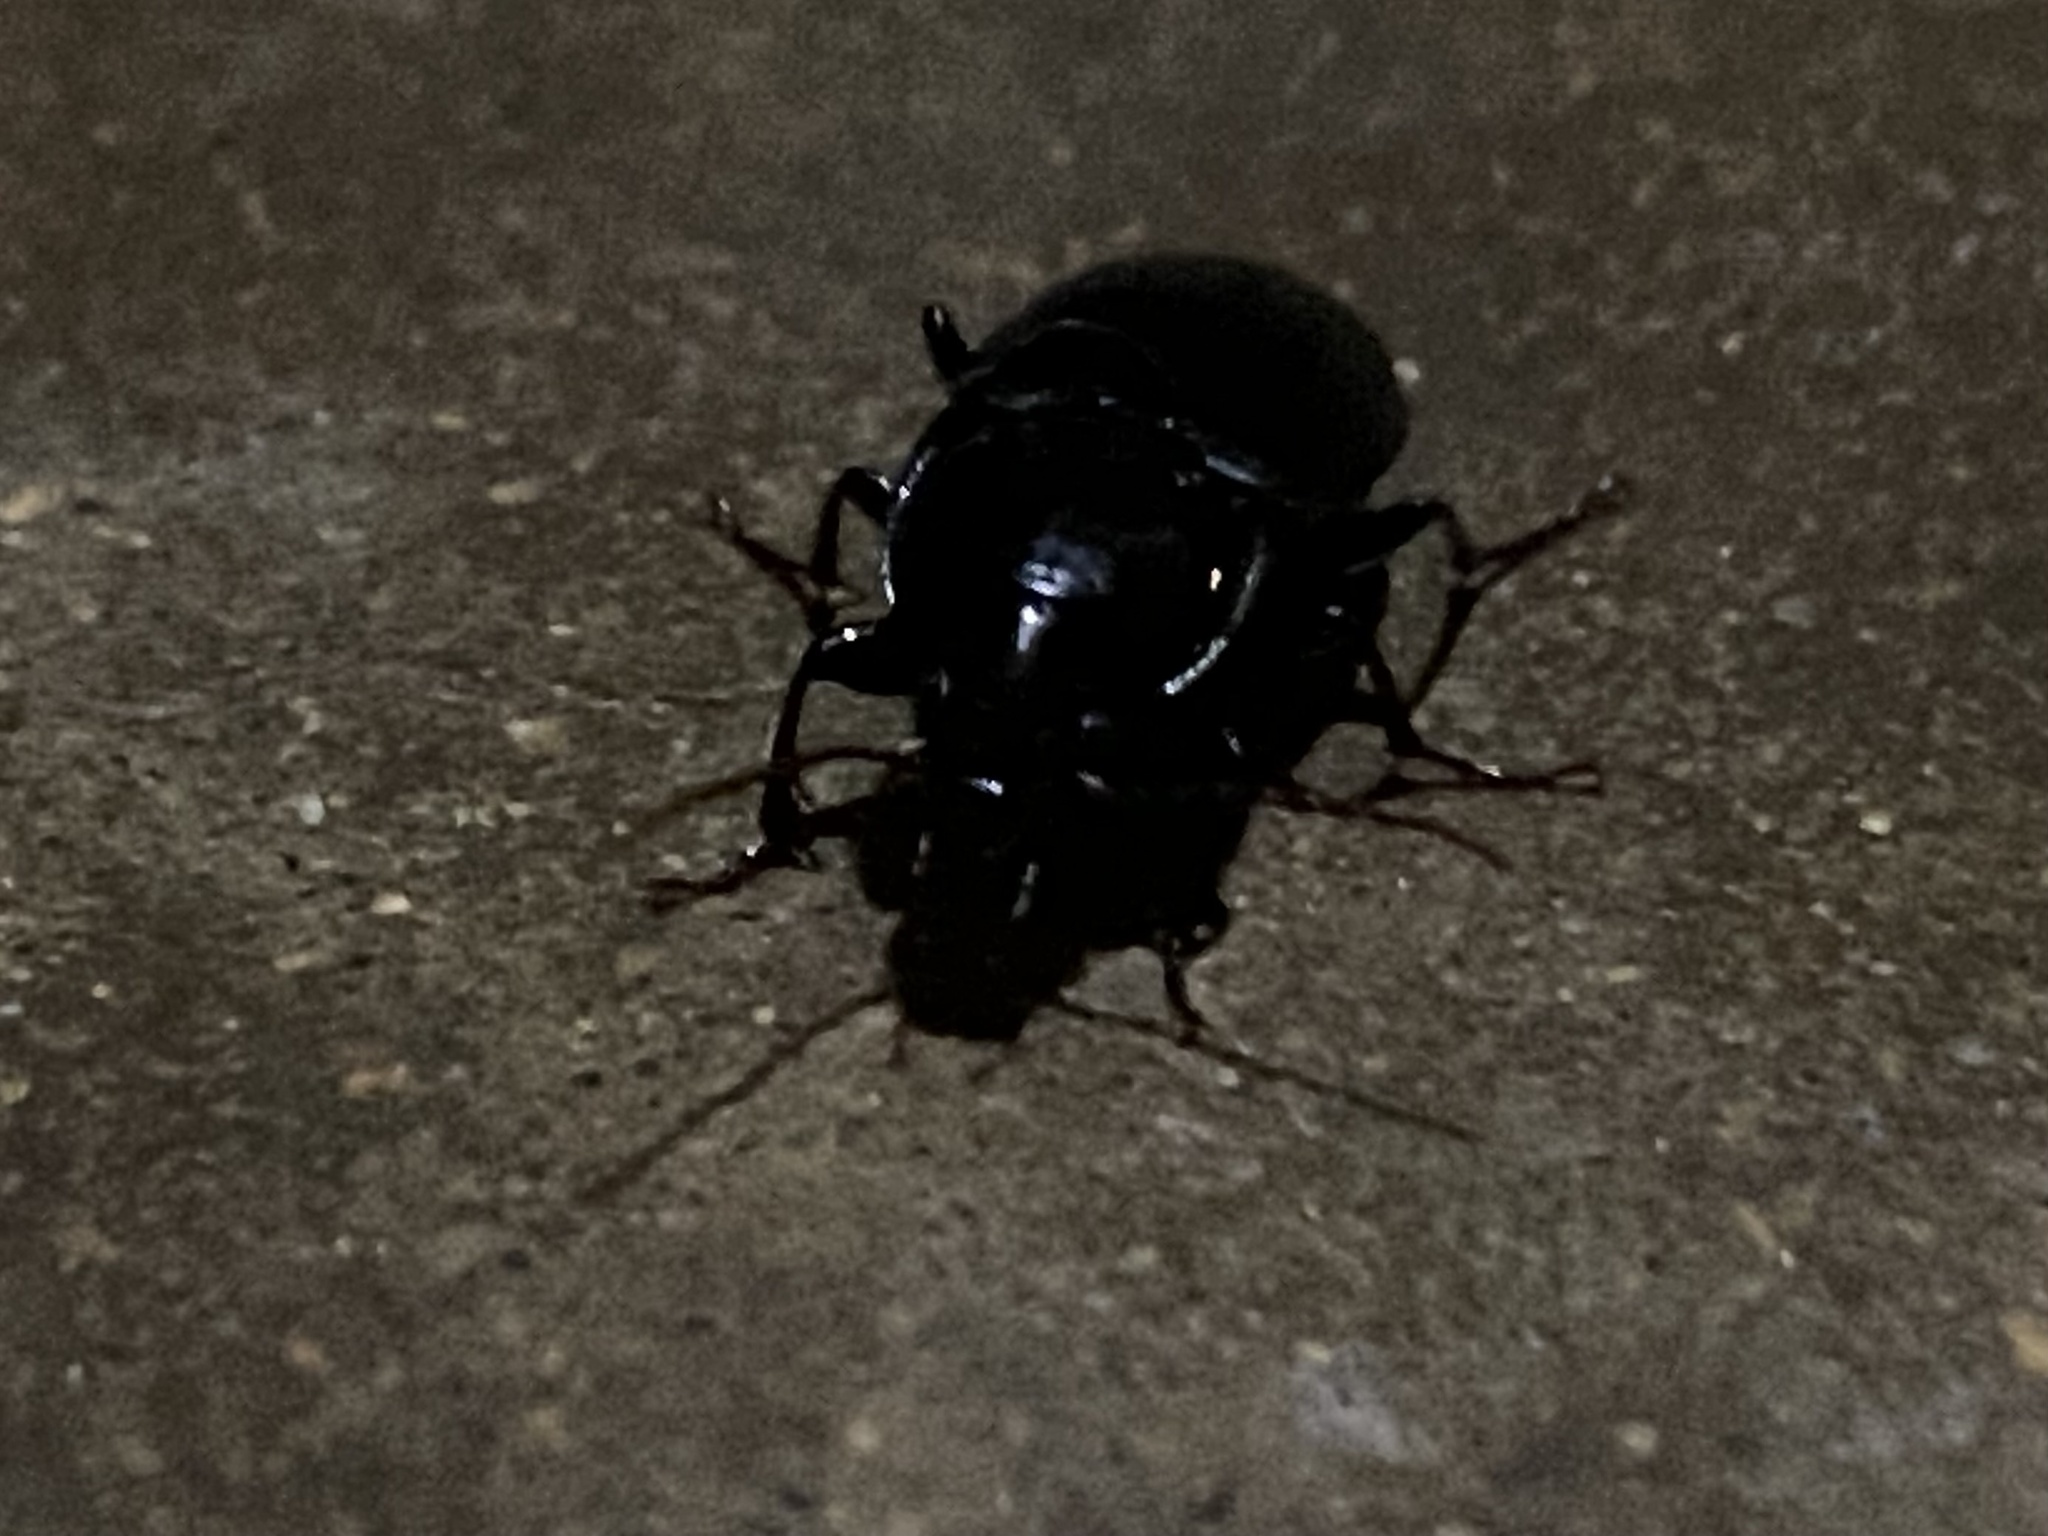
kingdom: Animalia
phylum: Arthropoda
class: Insecta
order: Coleoptera
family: Carabidae
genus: Abacidus
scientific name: Abacidus
